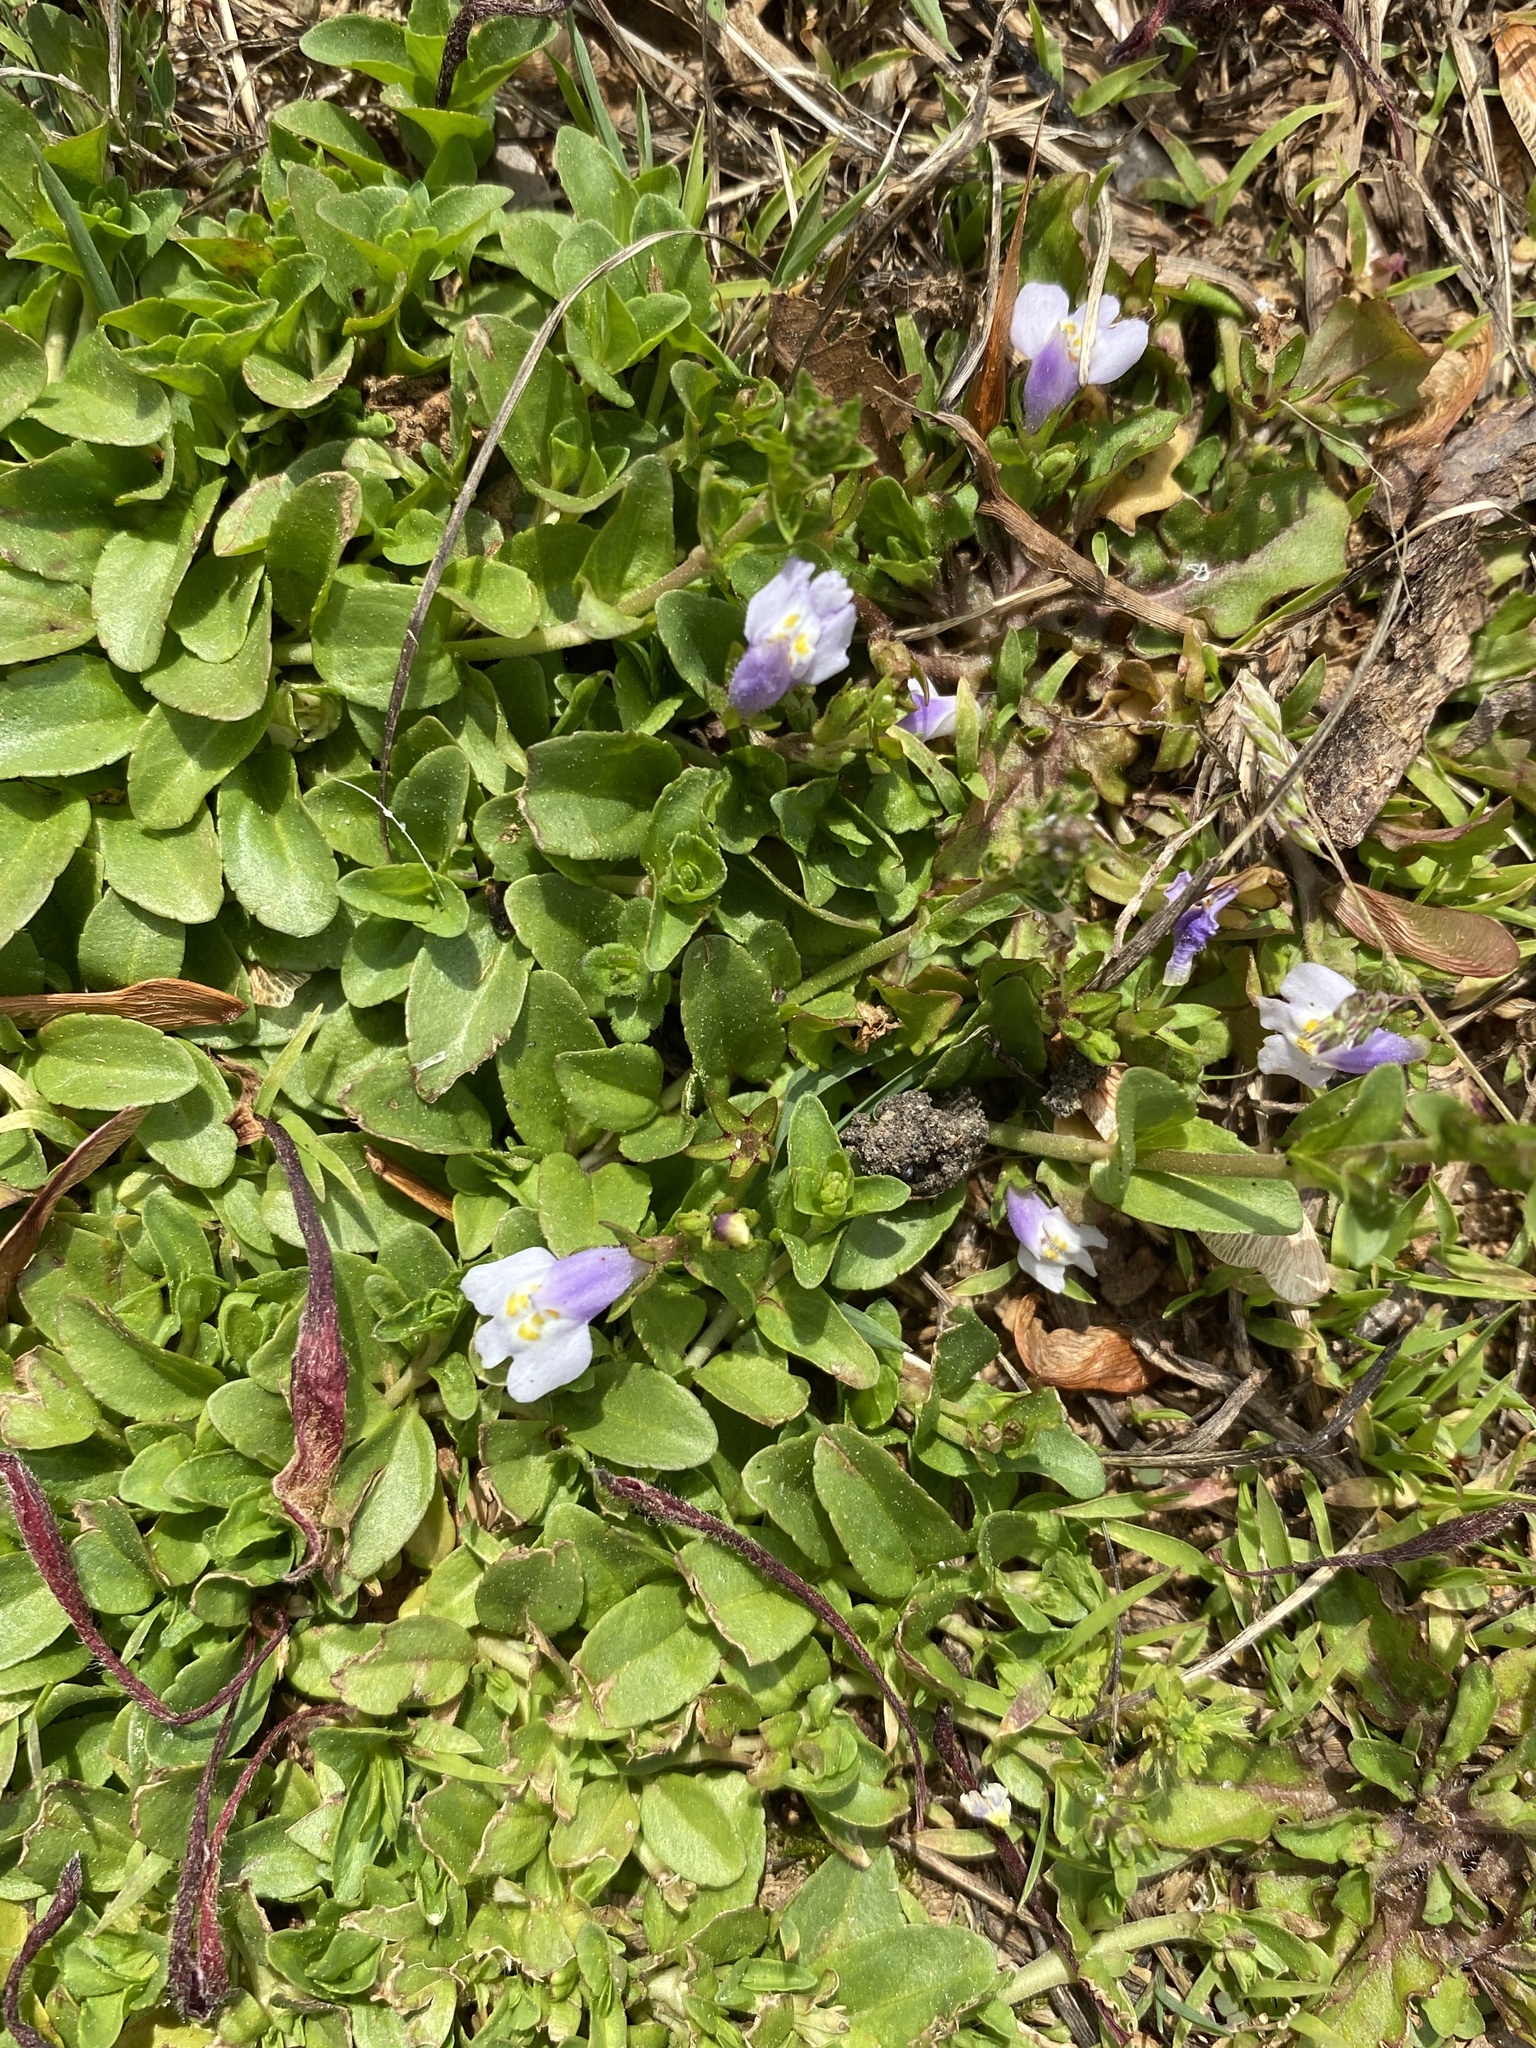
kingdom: Plantae
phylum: Tracheophyta
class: Magnoliopsida
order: Lamiales
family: Mazaceae
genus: Mazus
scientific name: Mazus pumilus
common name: Japanese mazus
